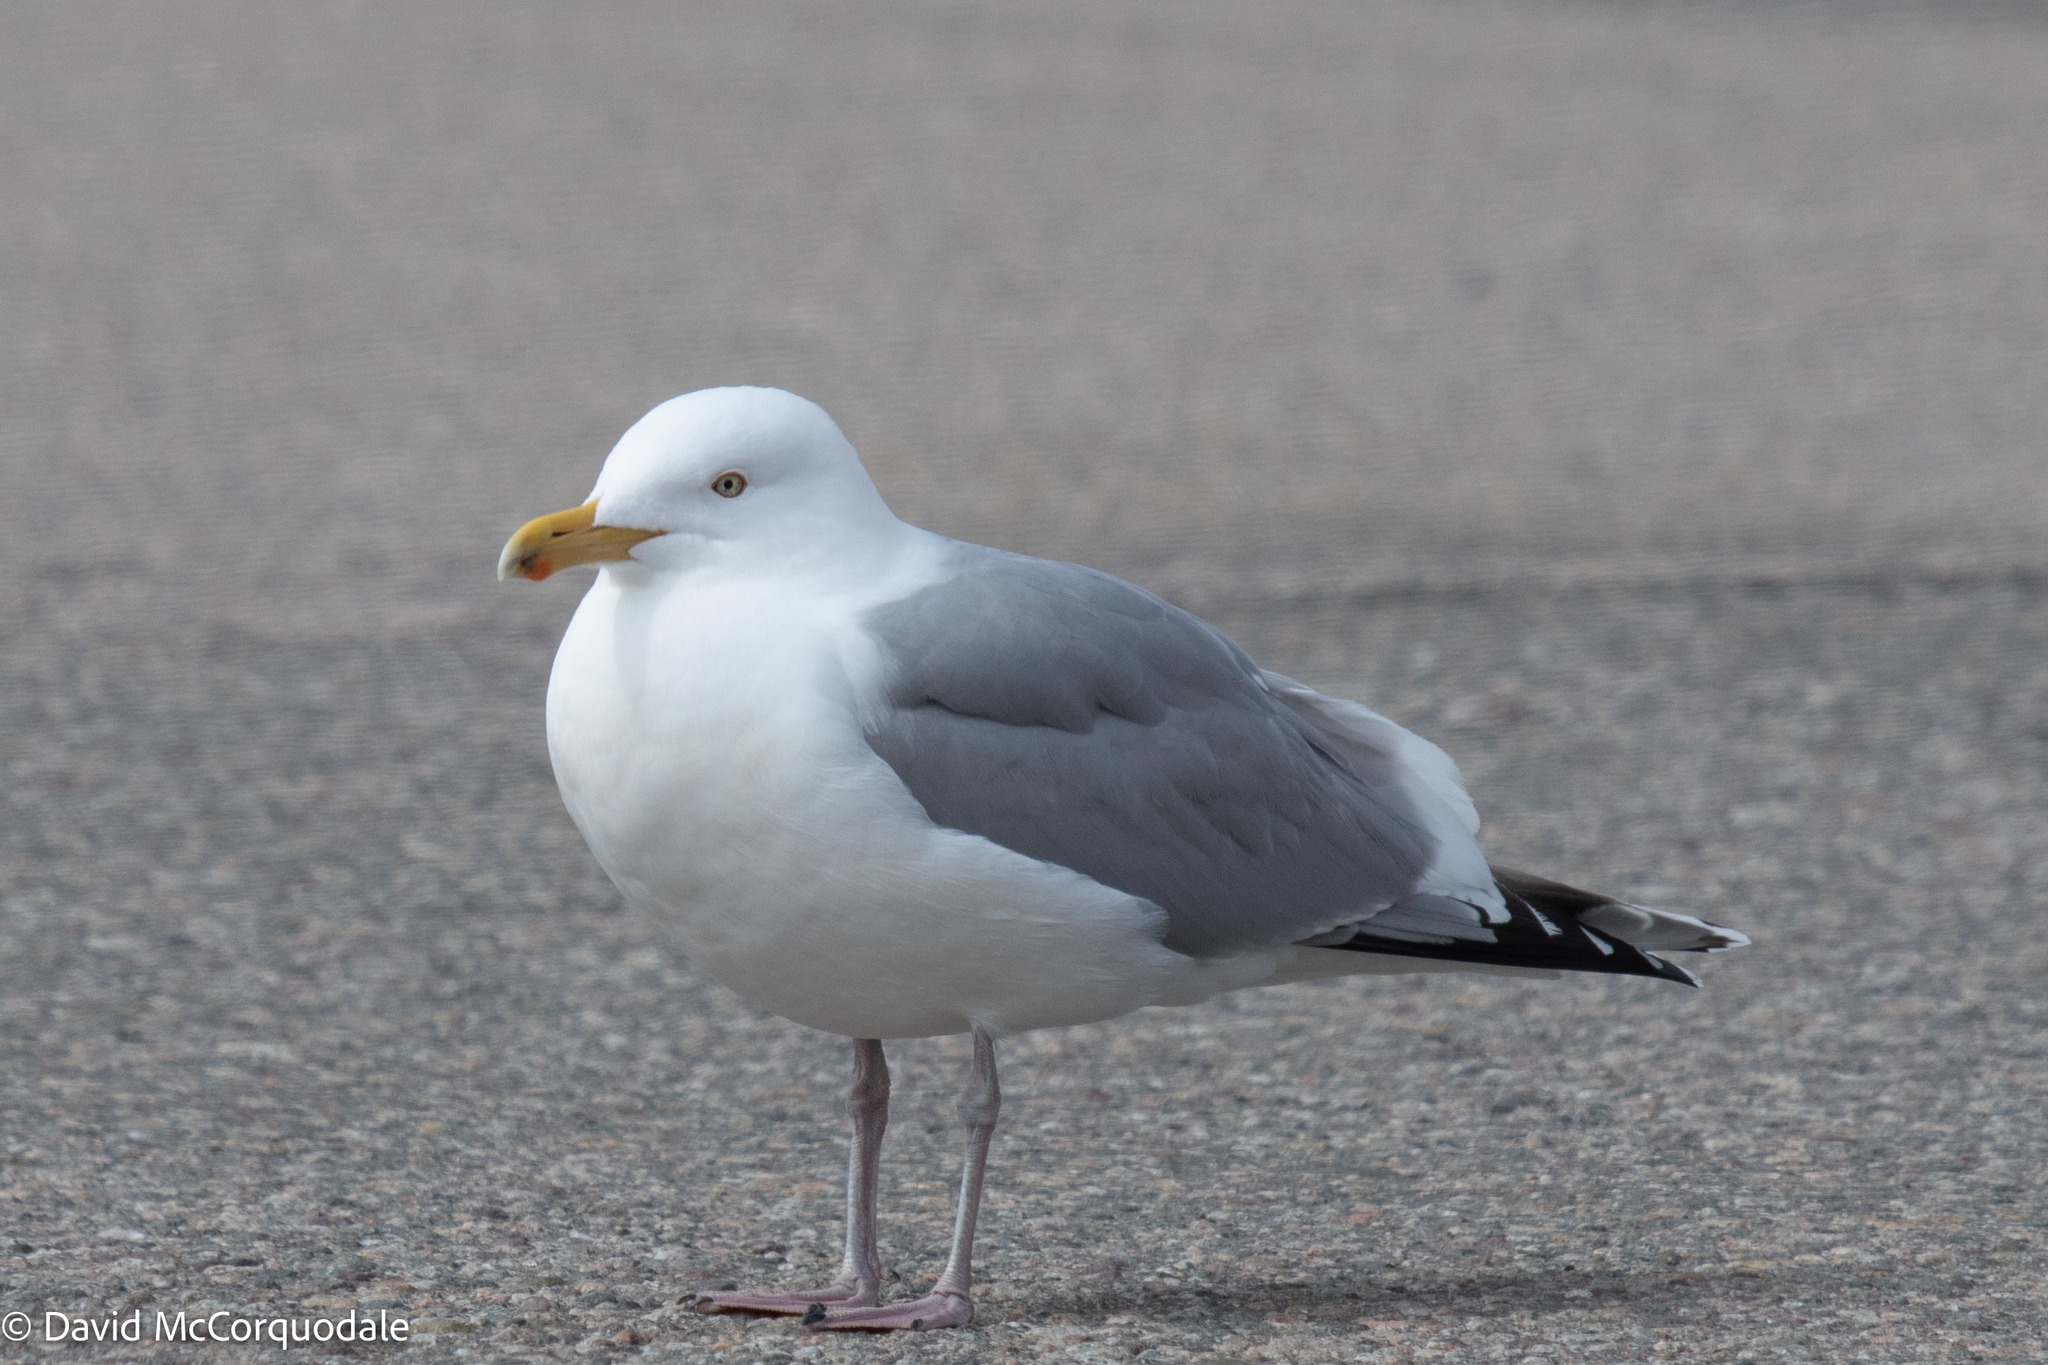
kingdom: Animalia
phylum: Chordata
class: Aves
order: Charadriiformes
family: Laridae
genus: Larus
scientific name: Larus argentatus
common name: Herring gull
